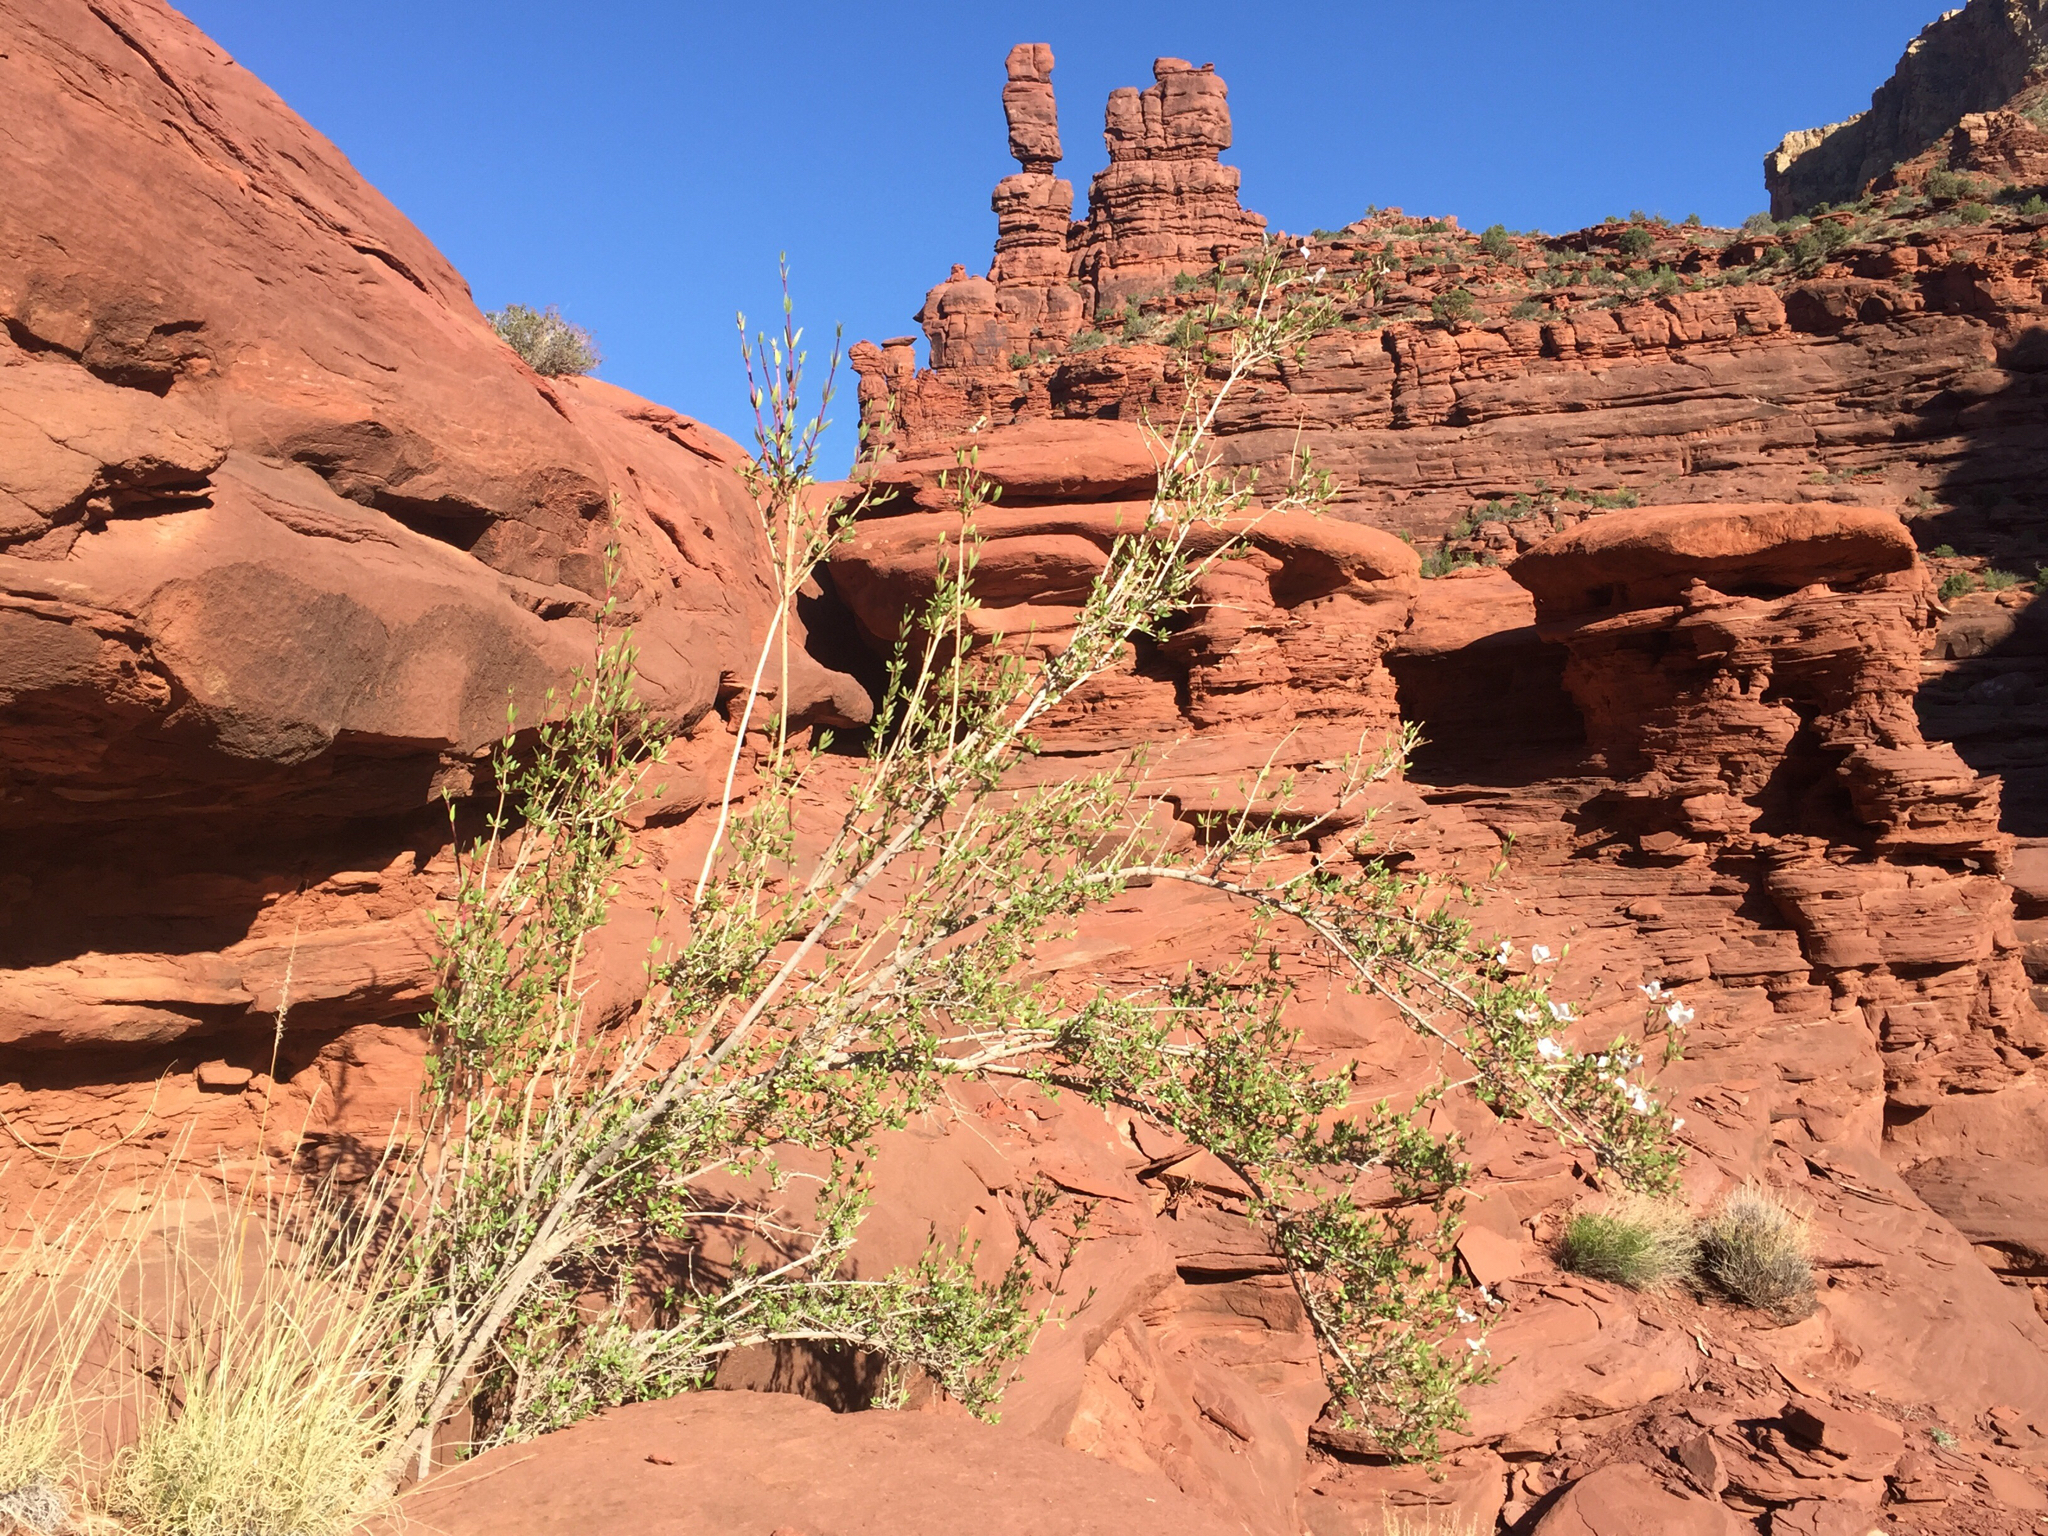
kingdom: Plantae
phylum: Tracheophyta
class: Magnoliopsida
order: Cornales
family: Hydrangeaceae
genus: Fendlera
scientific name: Fendlera rupicola
